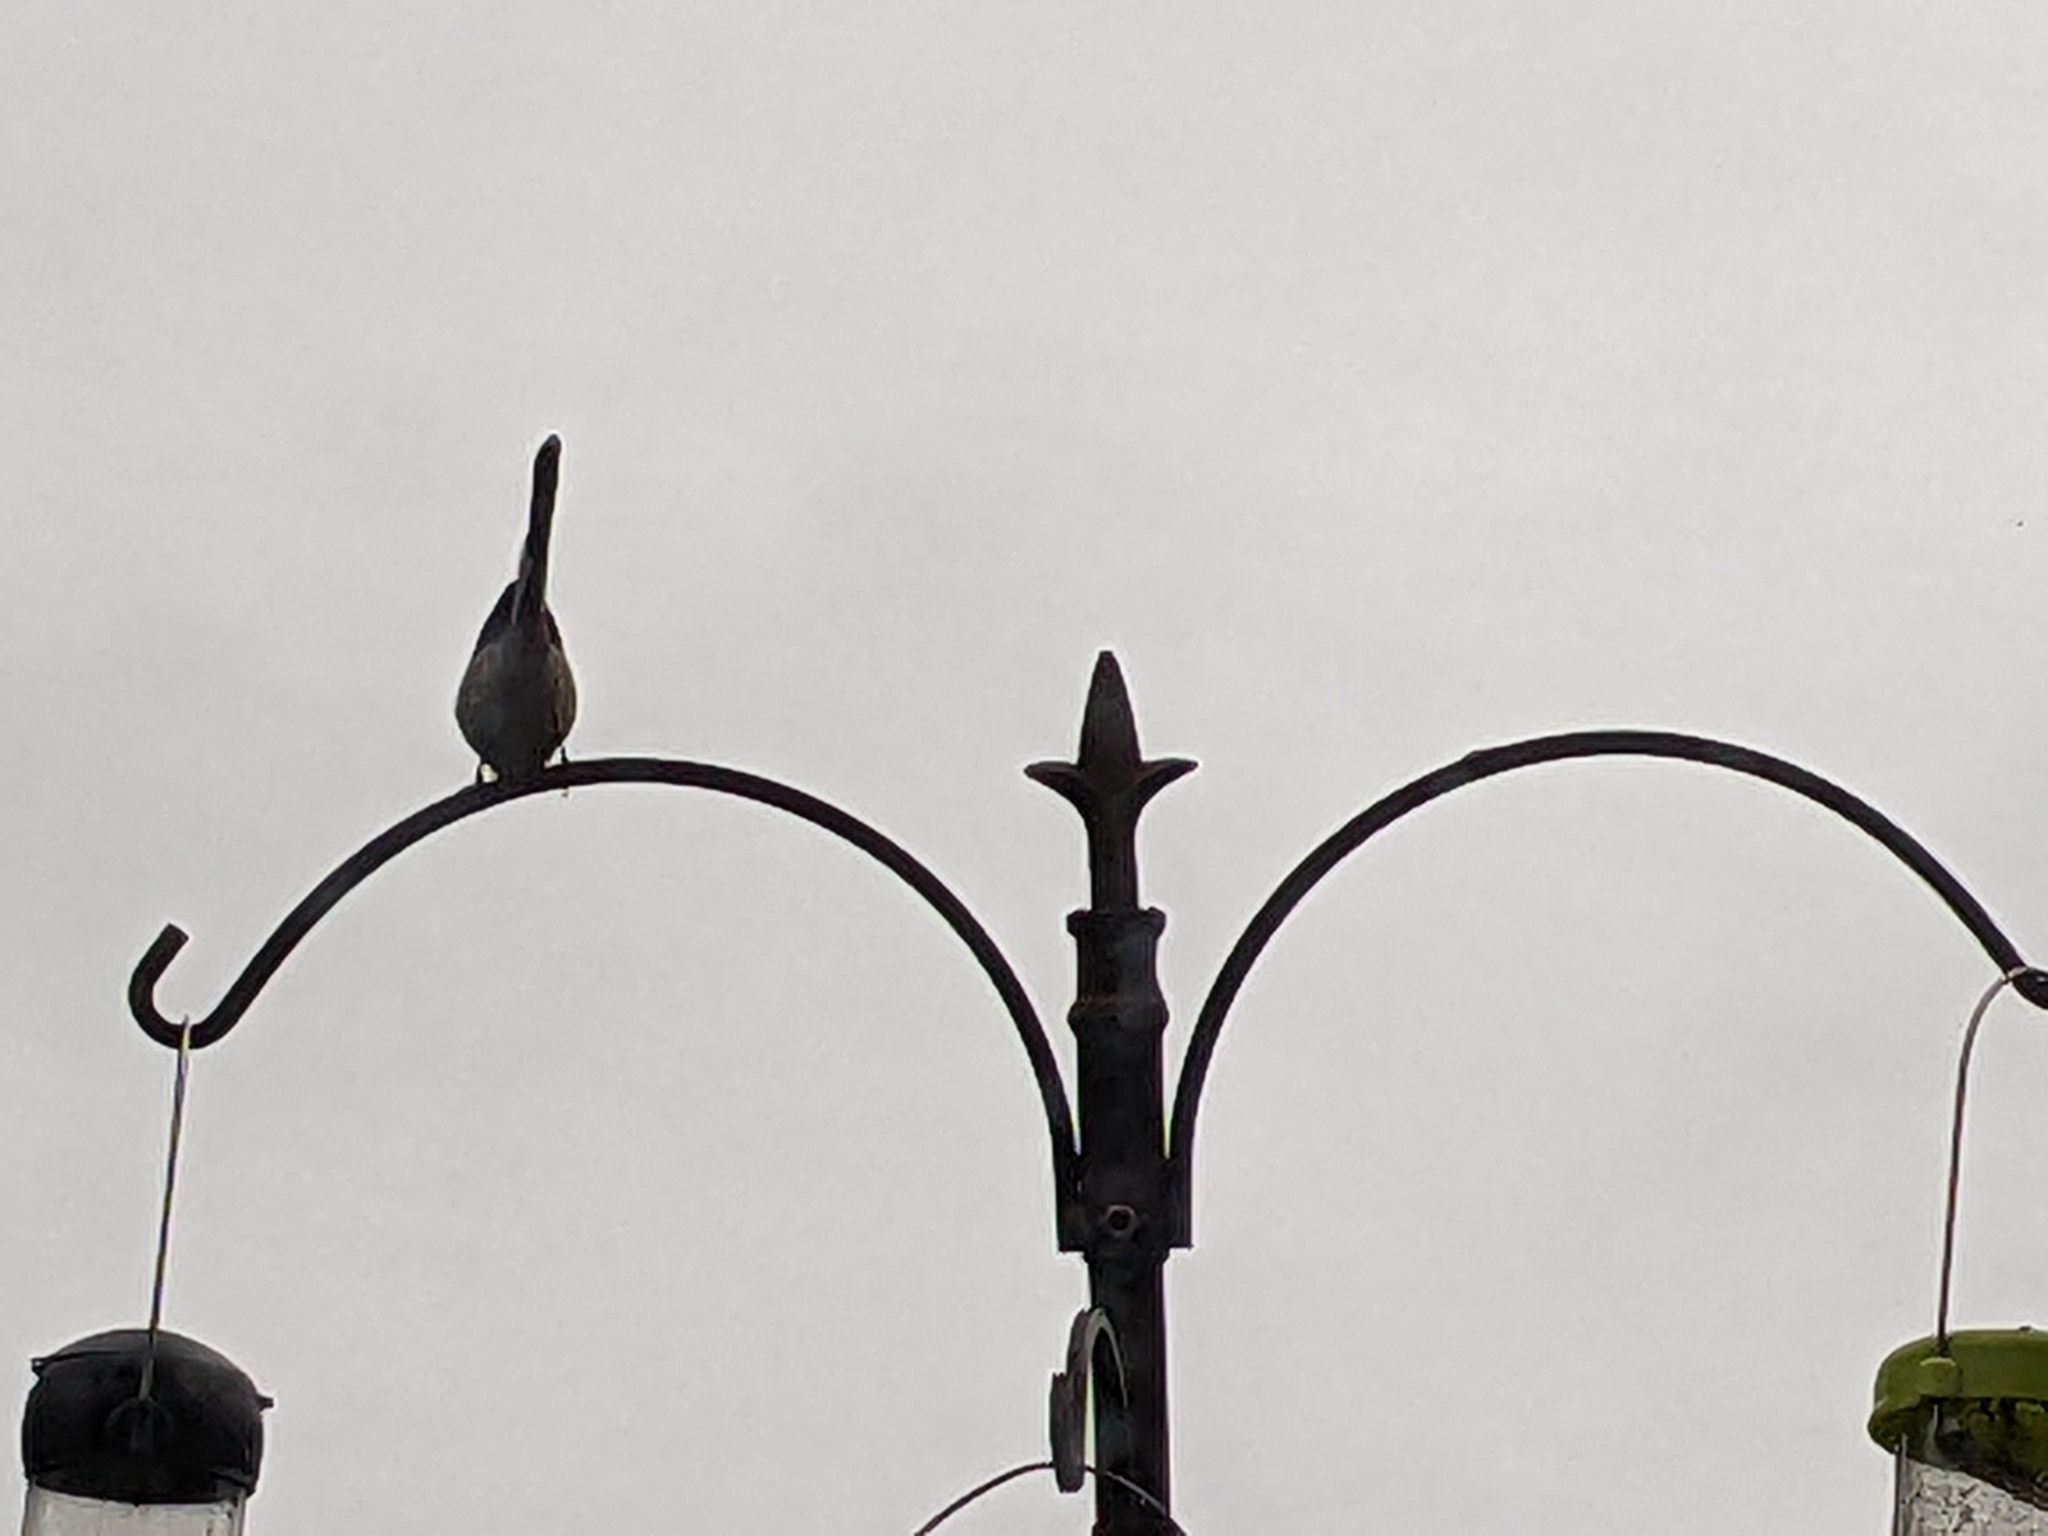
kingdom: Animalia
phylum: Chordata
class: Aves
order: Passeriformes
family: Aegithalidae
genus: Aegithalos
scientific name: Aegithalos caudatus
